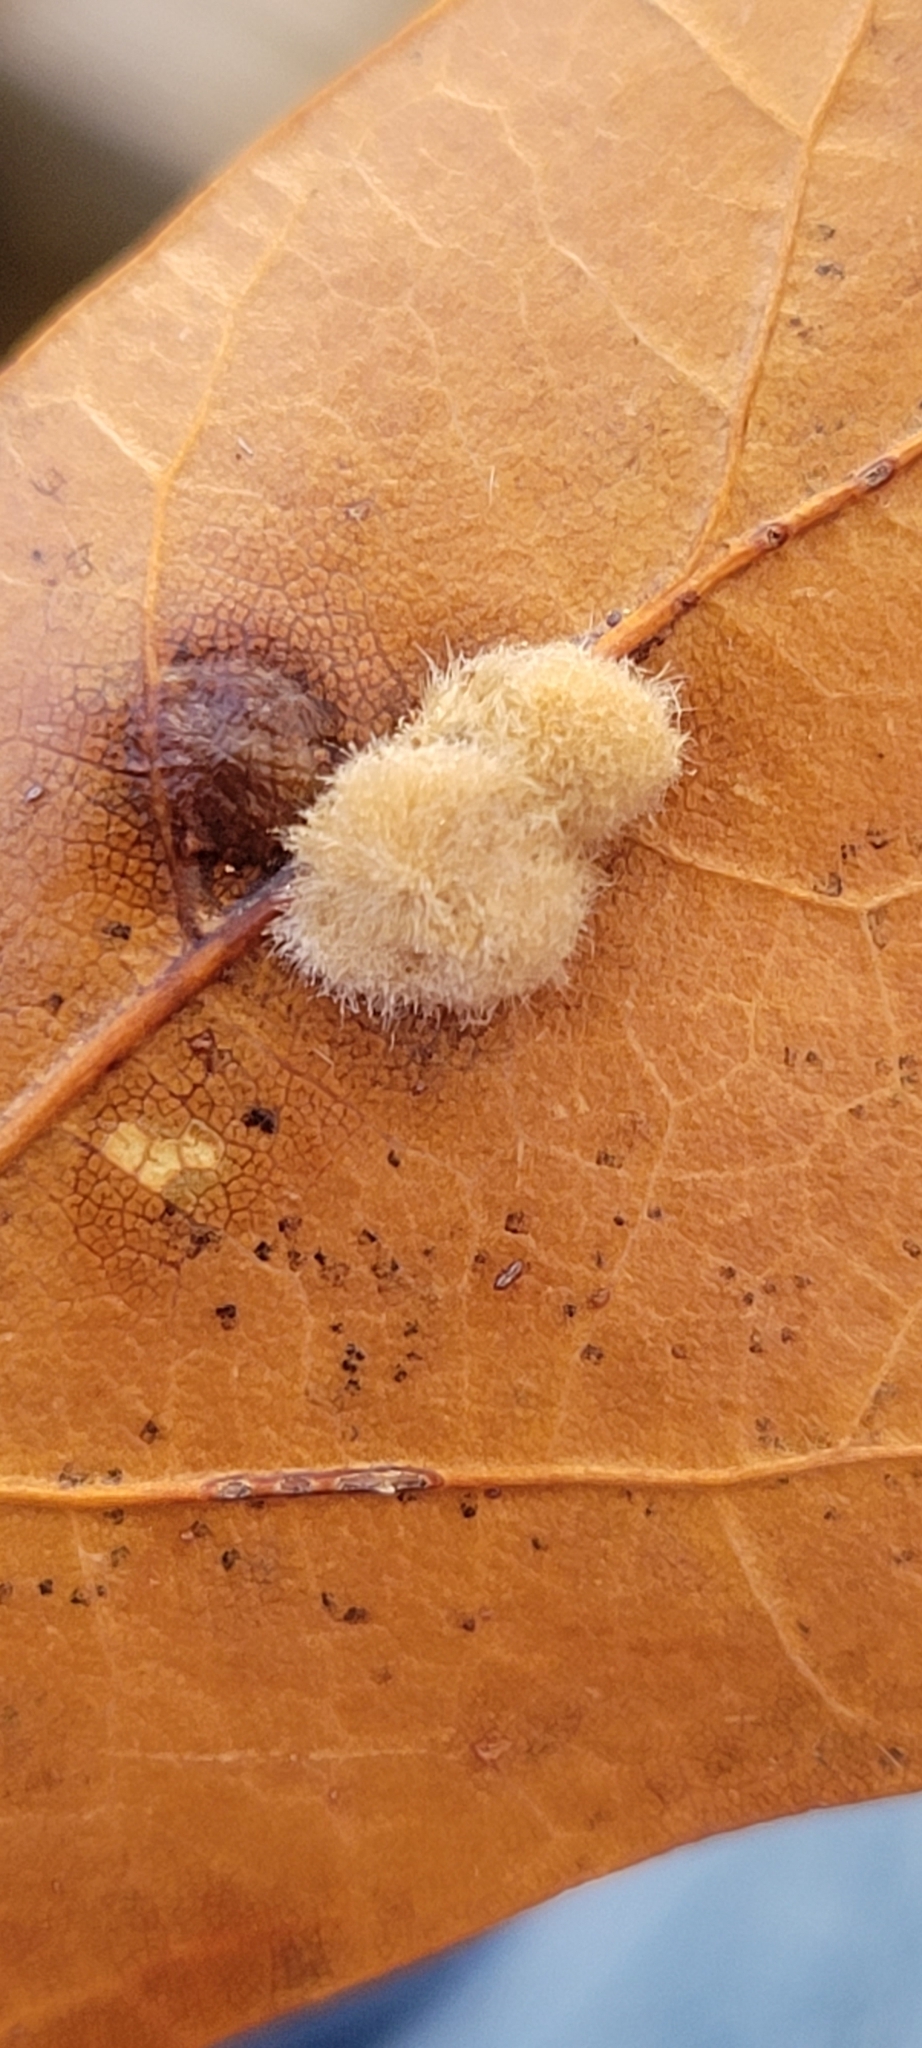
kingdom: Animalia
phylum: Arthropoda
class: Insecta
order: Hymenoptera
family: Cynipidae
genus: Callirhytis
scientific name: Callirhytis
